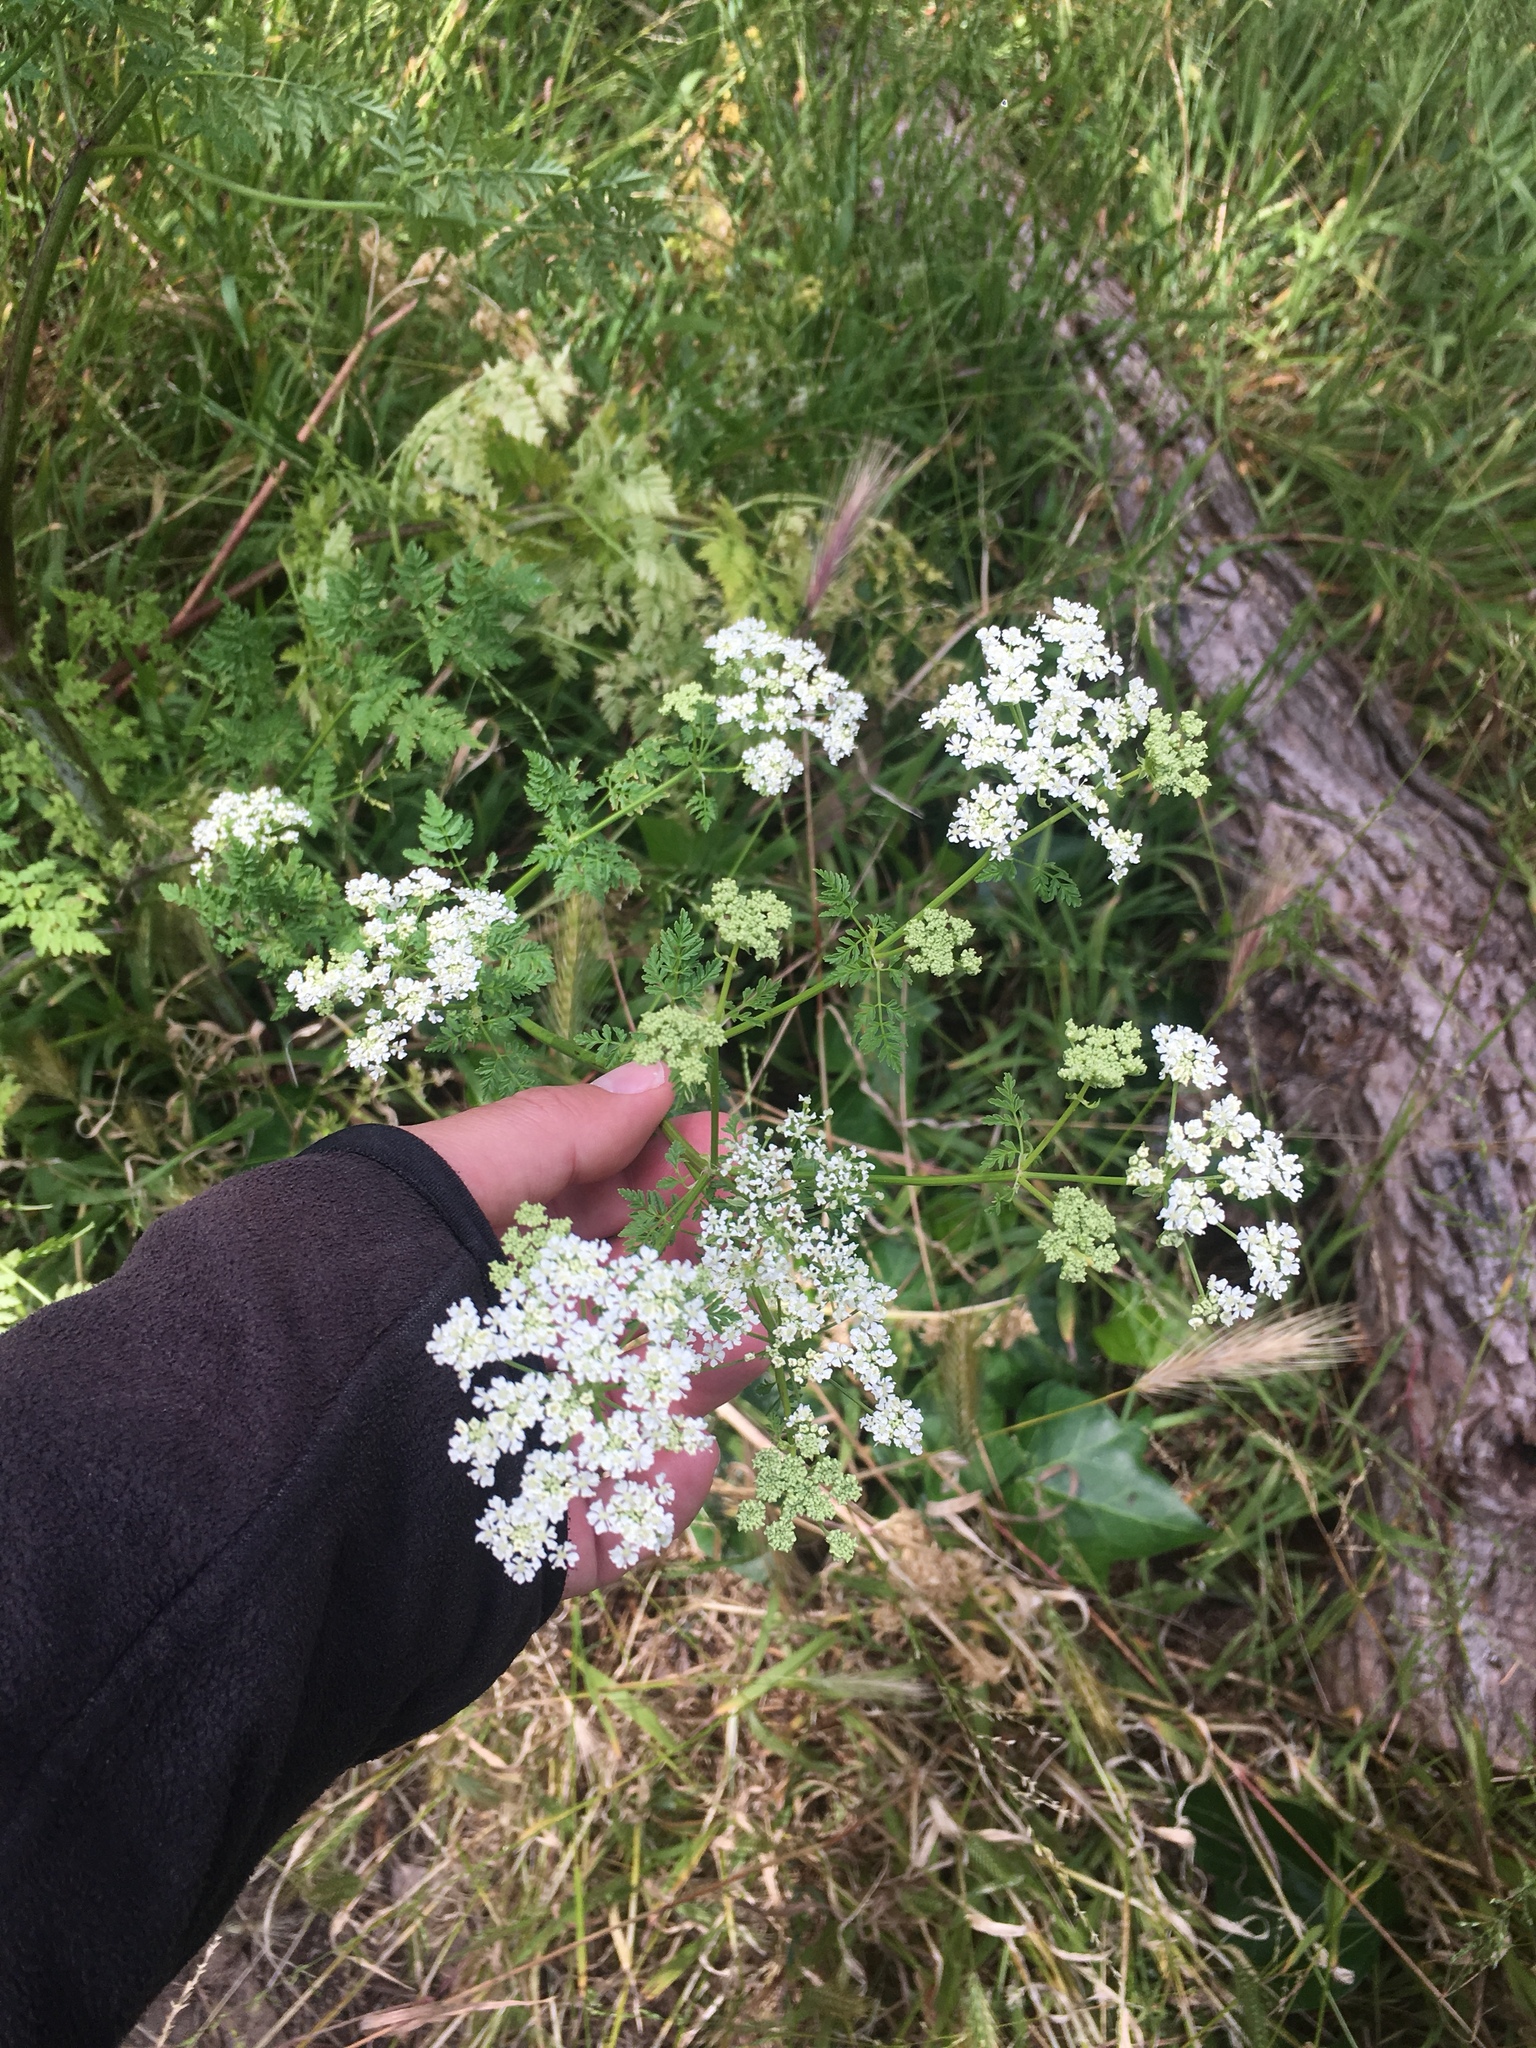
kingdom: Plantae
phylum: Tracheophyta
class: Magnoliopsida
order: Apiales
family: Apiaceae
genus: Conium
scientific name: Conium maculatum
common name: Hemlock
